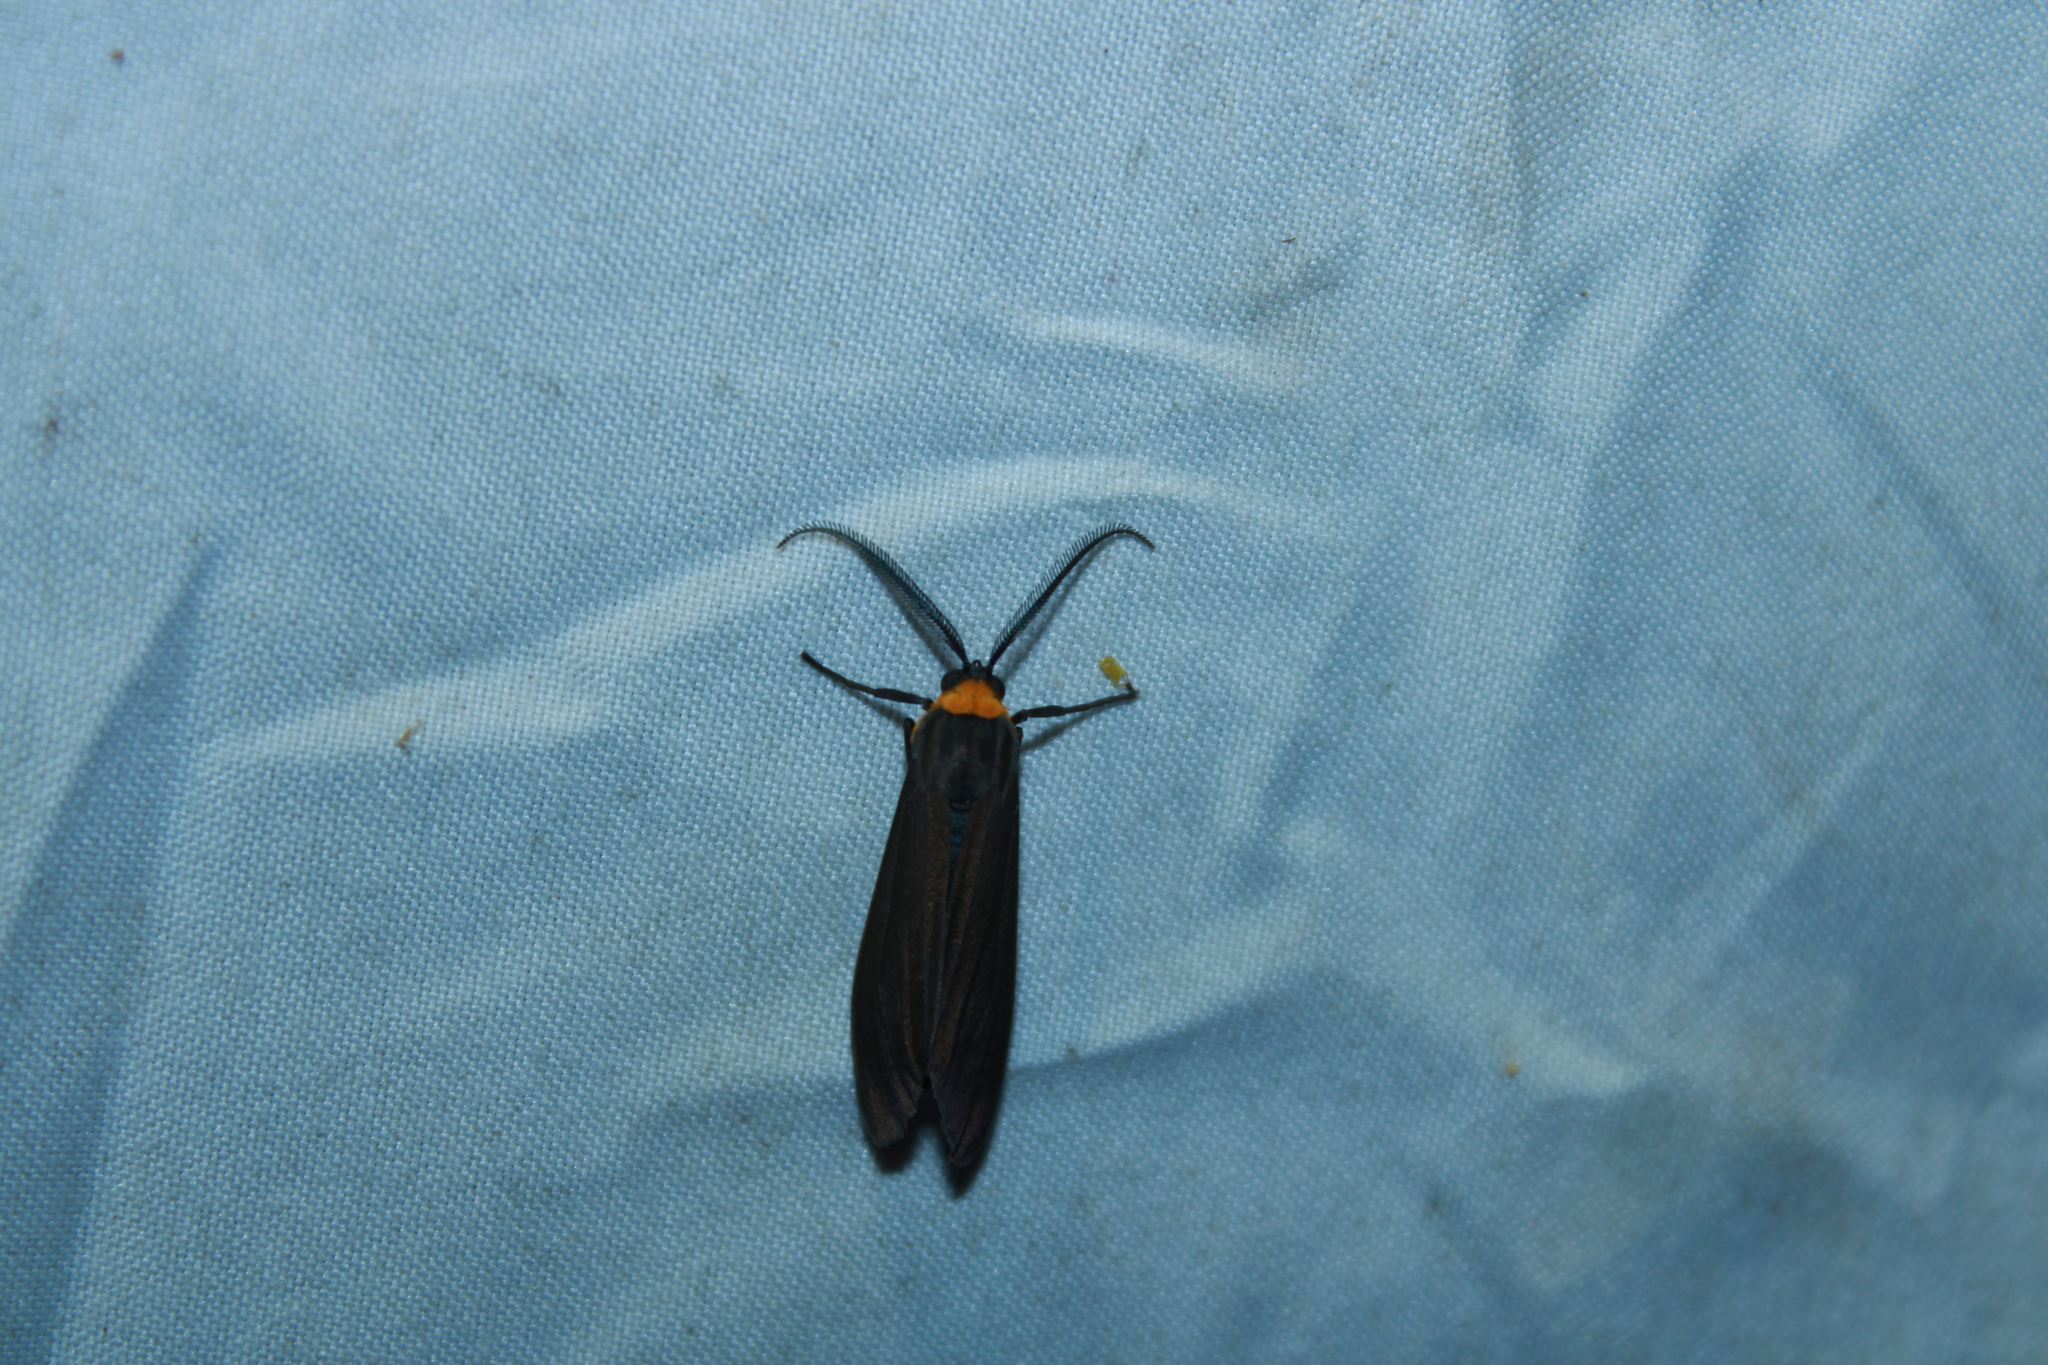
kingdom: Animalia
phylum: Arthropoda
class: Insecta
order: Lepidoptera
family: Erebidae
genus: Cisseps
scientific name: Cisseps fulvicollis
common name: Yellow-collared scape moth
